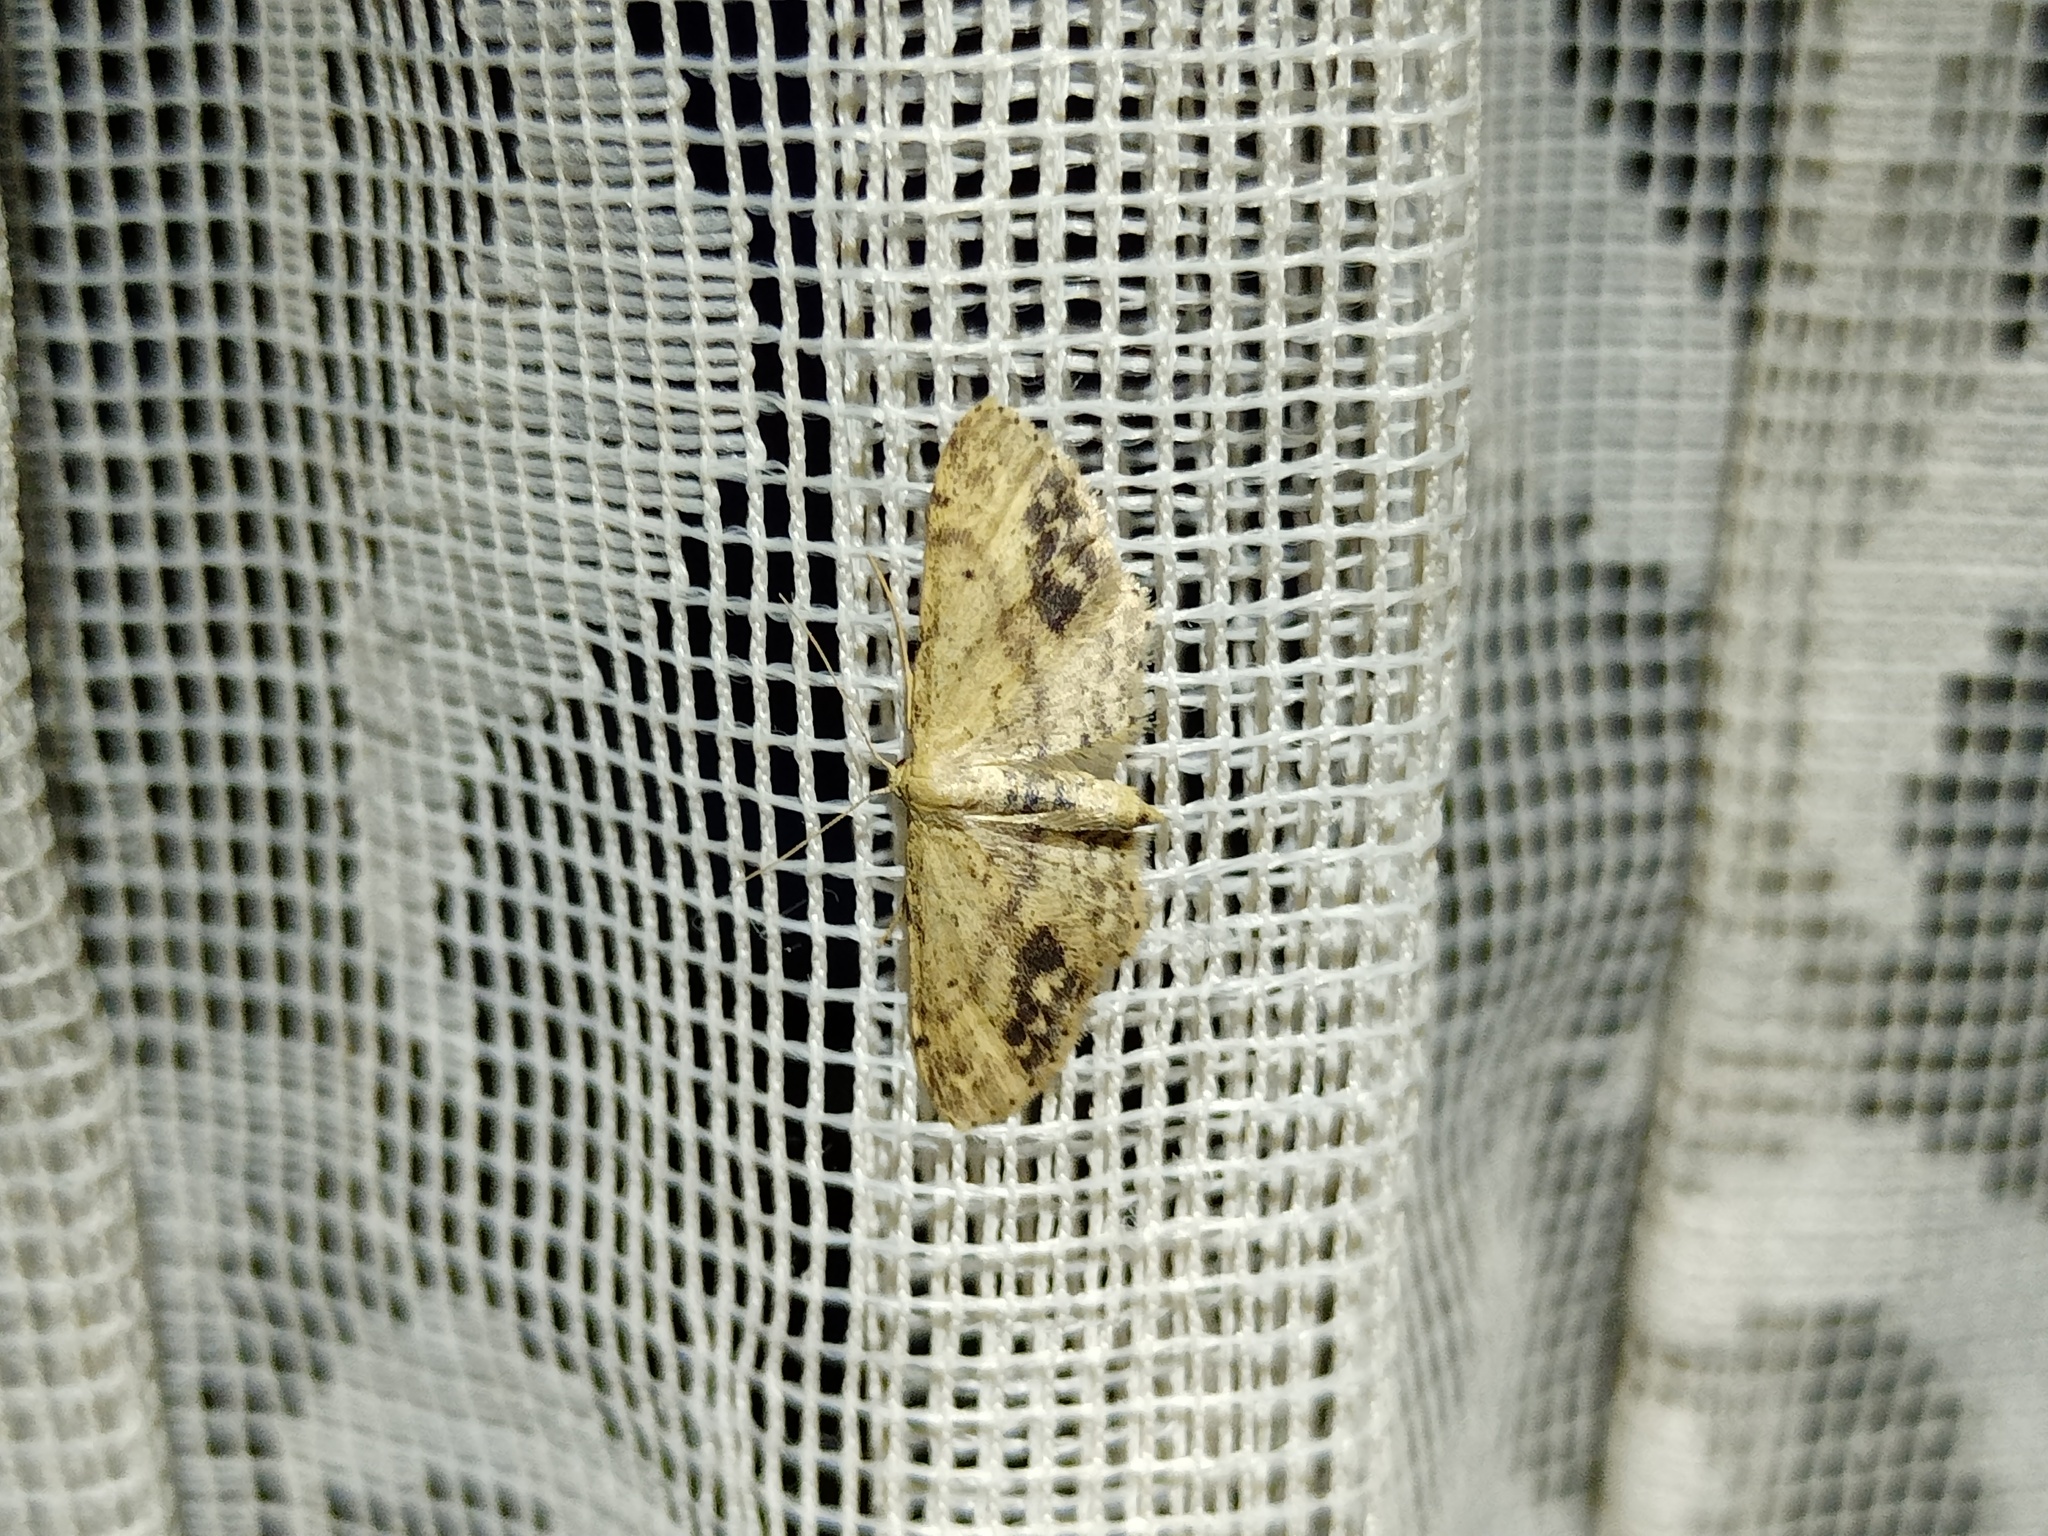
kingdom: Animalia
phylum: Arthropoda
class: Insecta
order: Lepidoptera
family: Geometridae
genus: Idaea
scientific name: Idaea dimidiata
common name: Single-dotted wave
